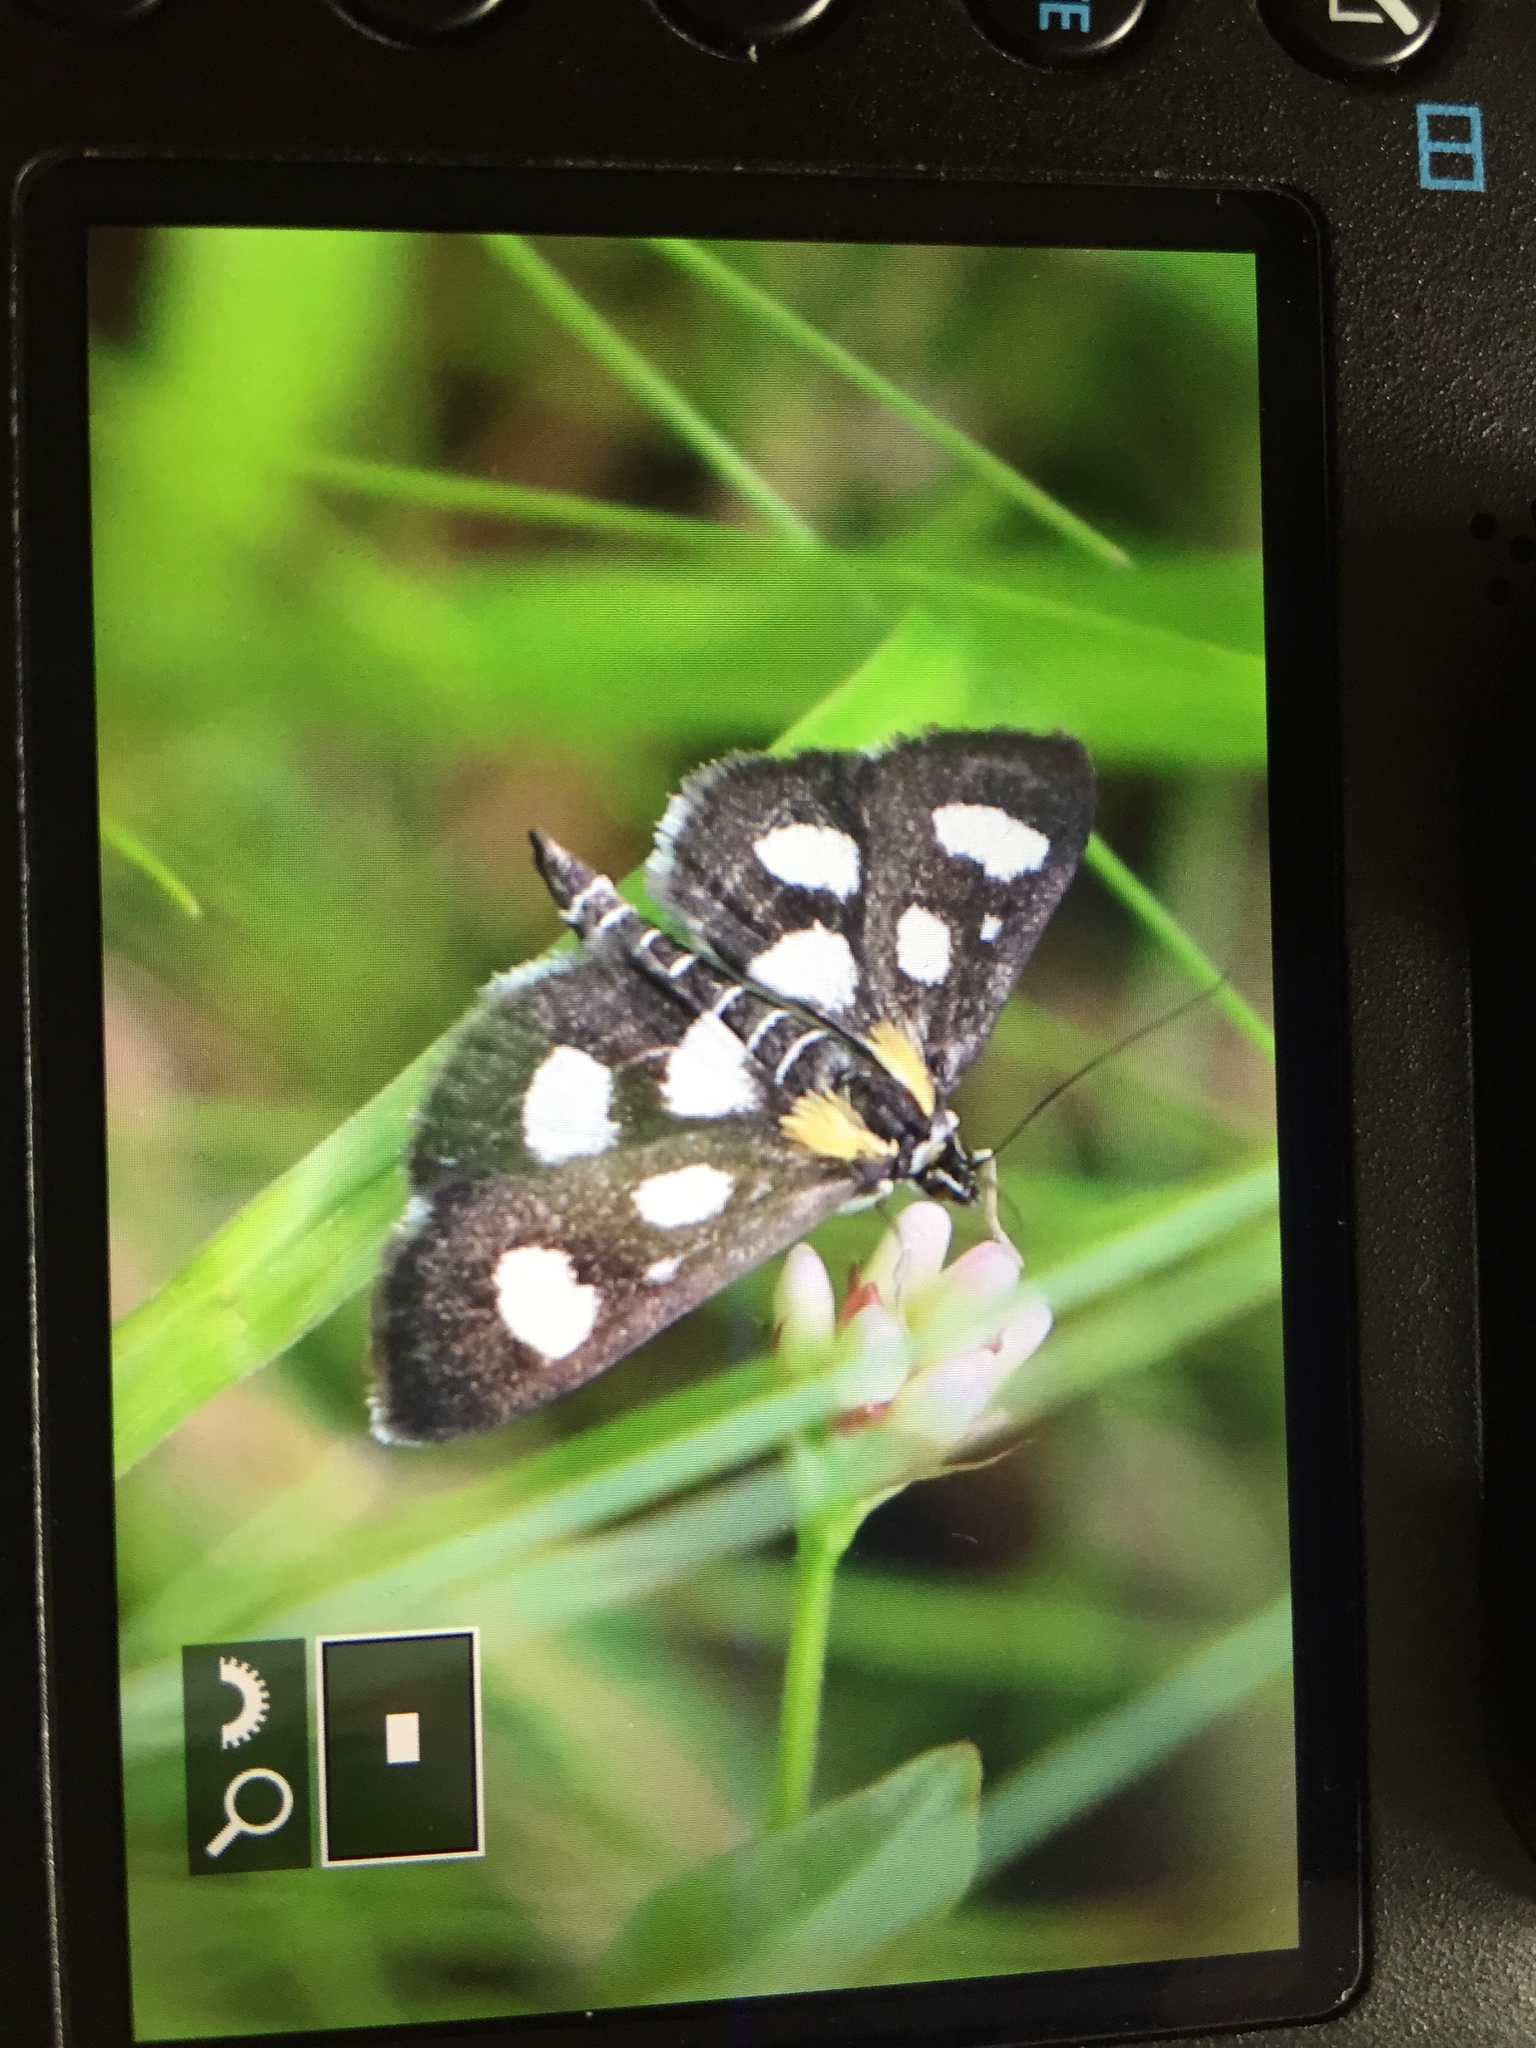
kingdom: Animalia
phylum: Arthropoda
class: Insecta
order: Lepidoptera
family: Crambidae
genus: Anania
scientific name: Anania funebris
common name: White-spotted sable moth
